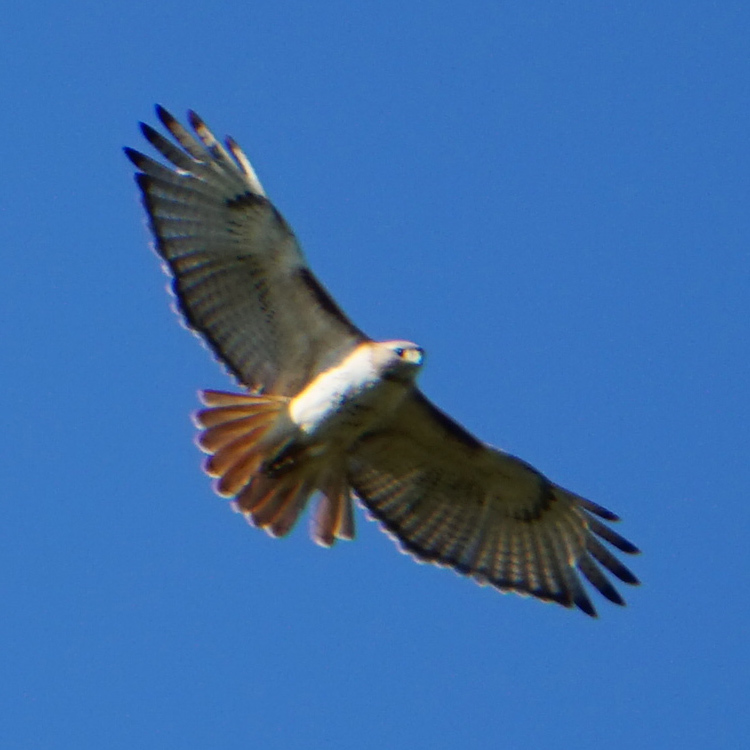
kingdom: Animalia
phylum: Chordata
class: Aves
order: Accipitriformes
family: Accipitridae
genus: Buteo
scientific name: Buteo jamaicensis
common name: Red-tailed hawk
